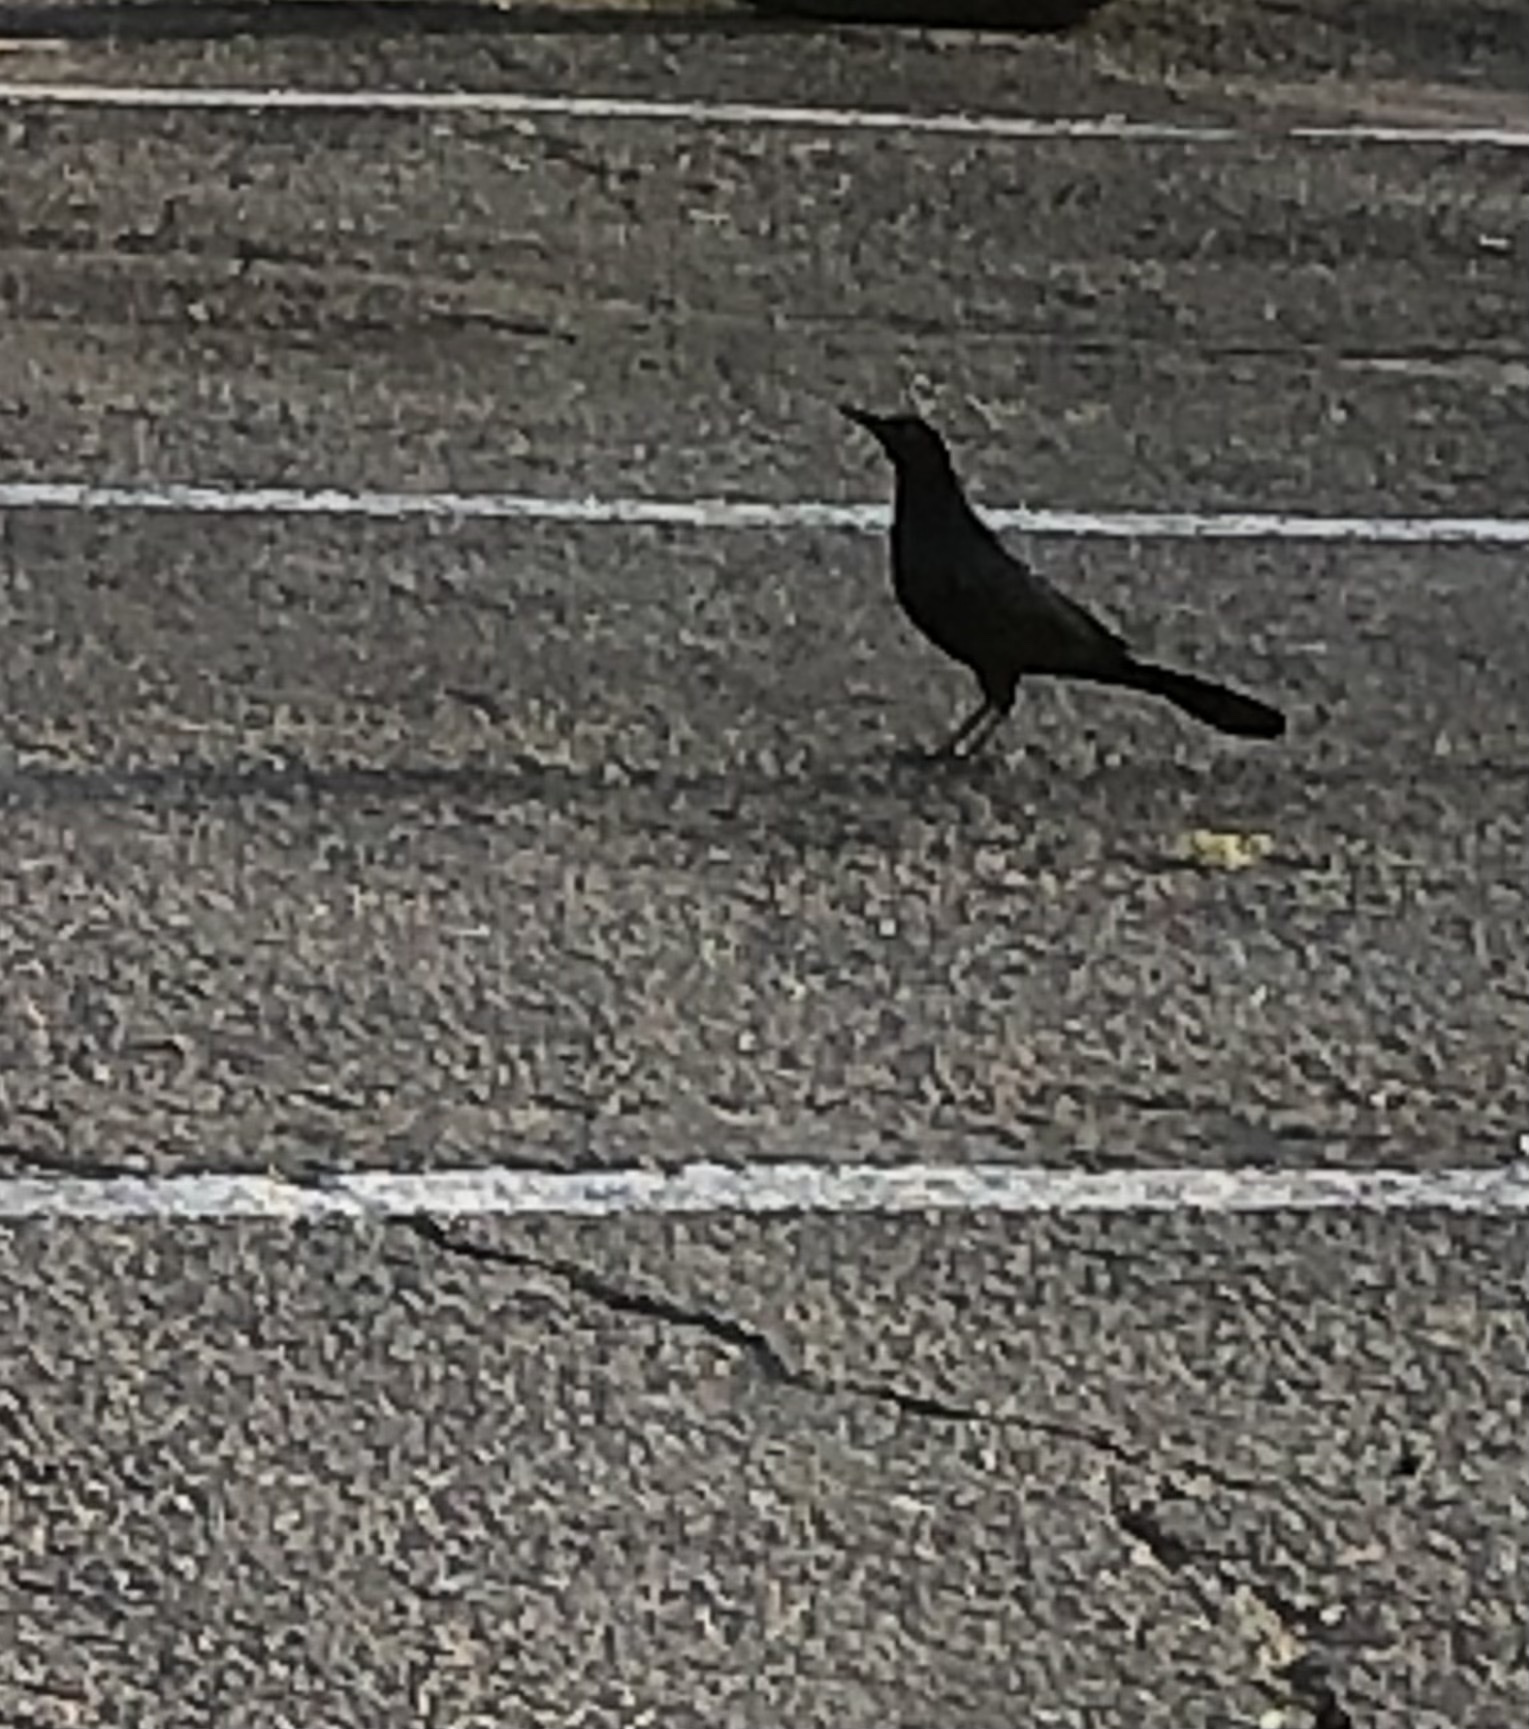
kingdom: Animalia
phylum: Chordata
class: Aves
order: Passeriformes
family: Icteridae
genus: Quiscalus
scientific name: Quiscalus mexicanus
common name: Great-tailed grackle
